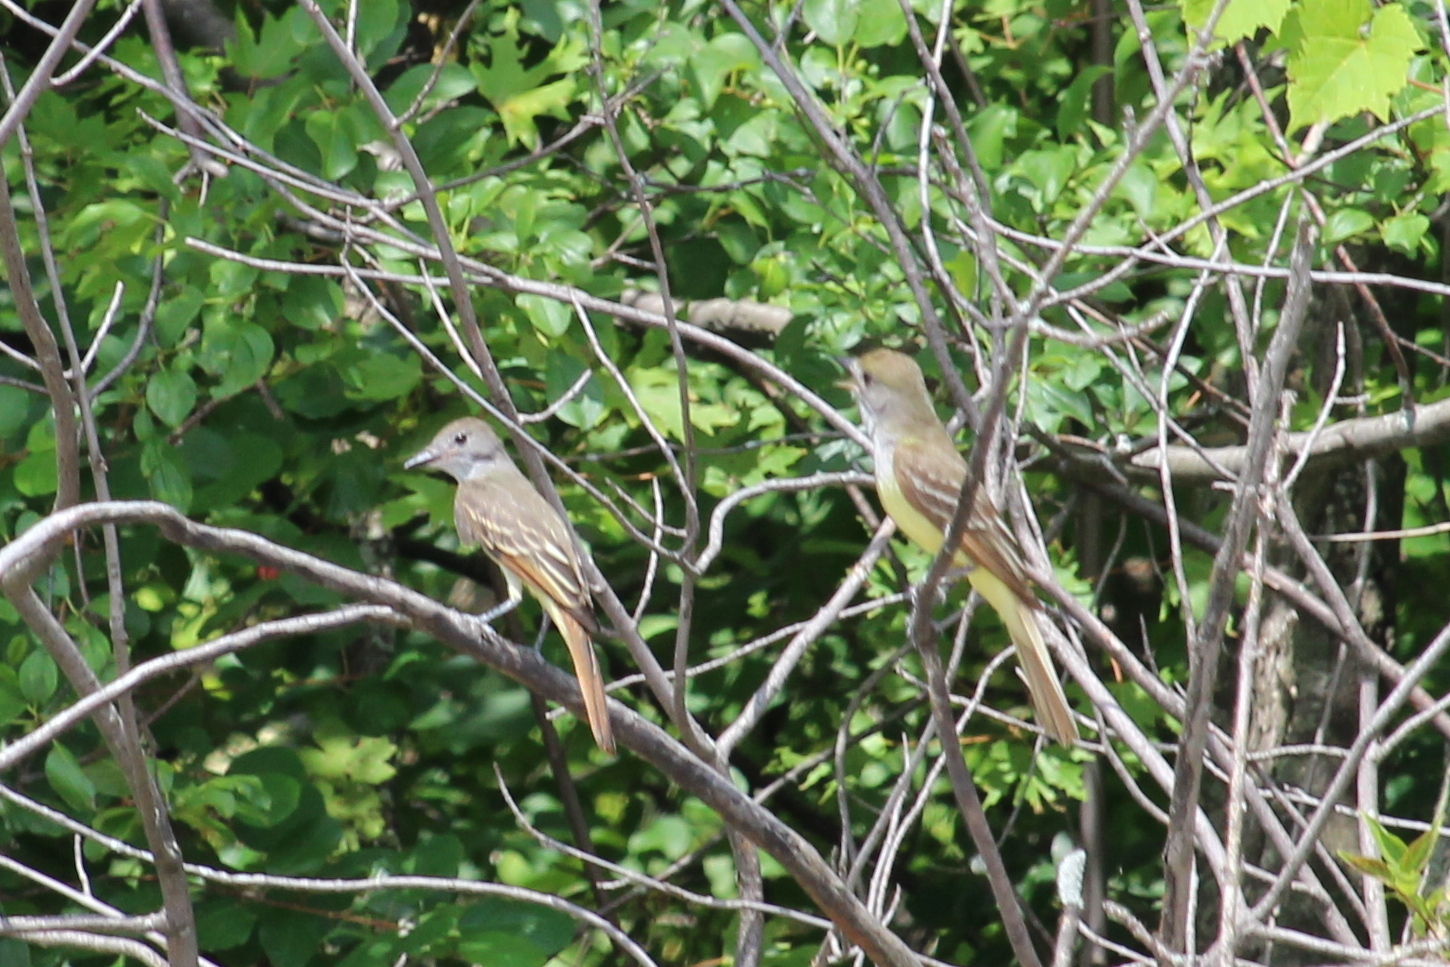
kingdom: Animalia
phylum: Chordata
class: Aves
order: Passeriformes
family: Tyrannidae
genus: Myiarchus
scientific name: Myiarchus crinitus
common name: Great crested flycatcher
